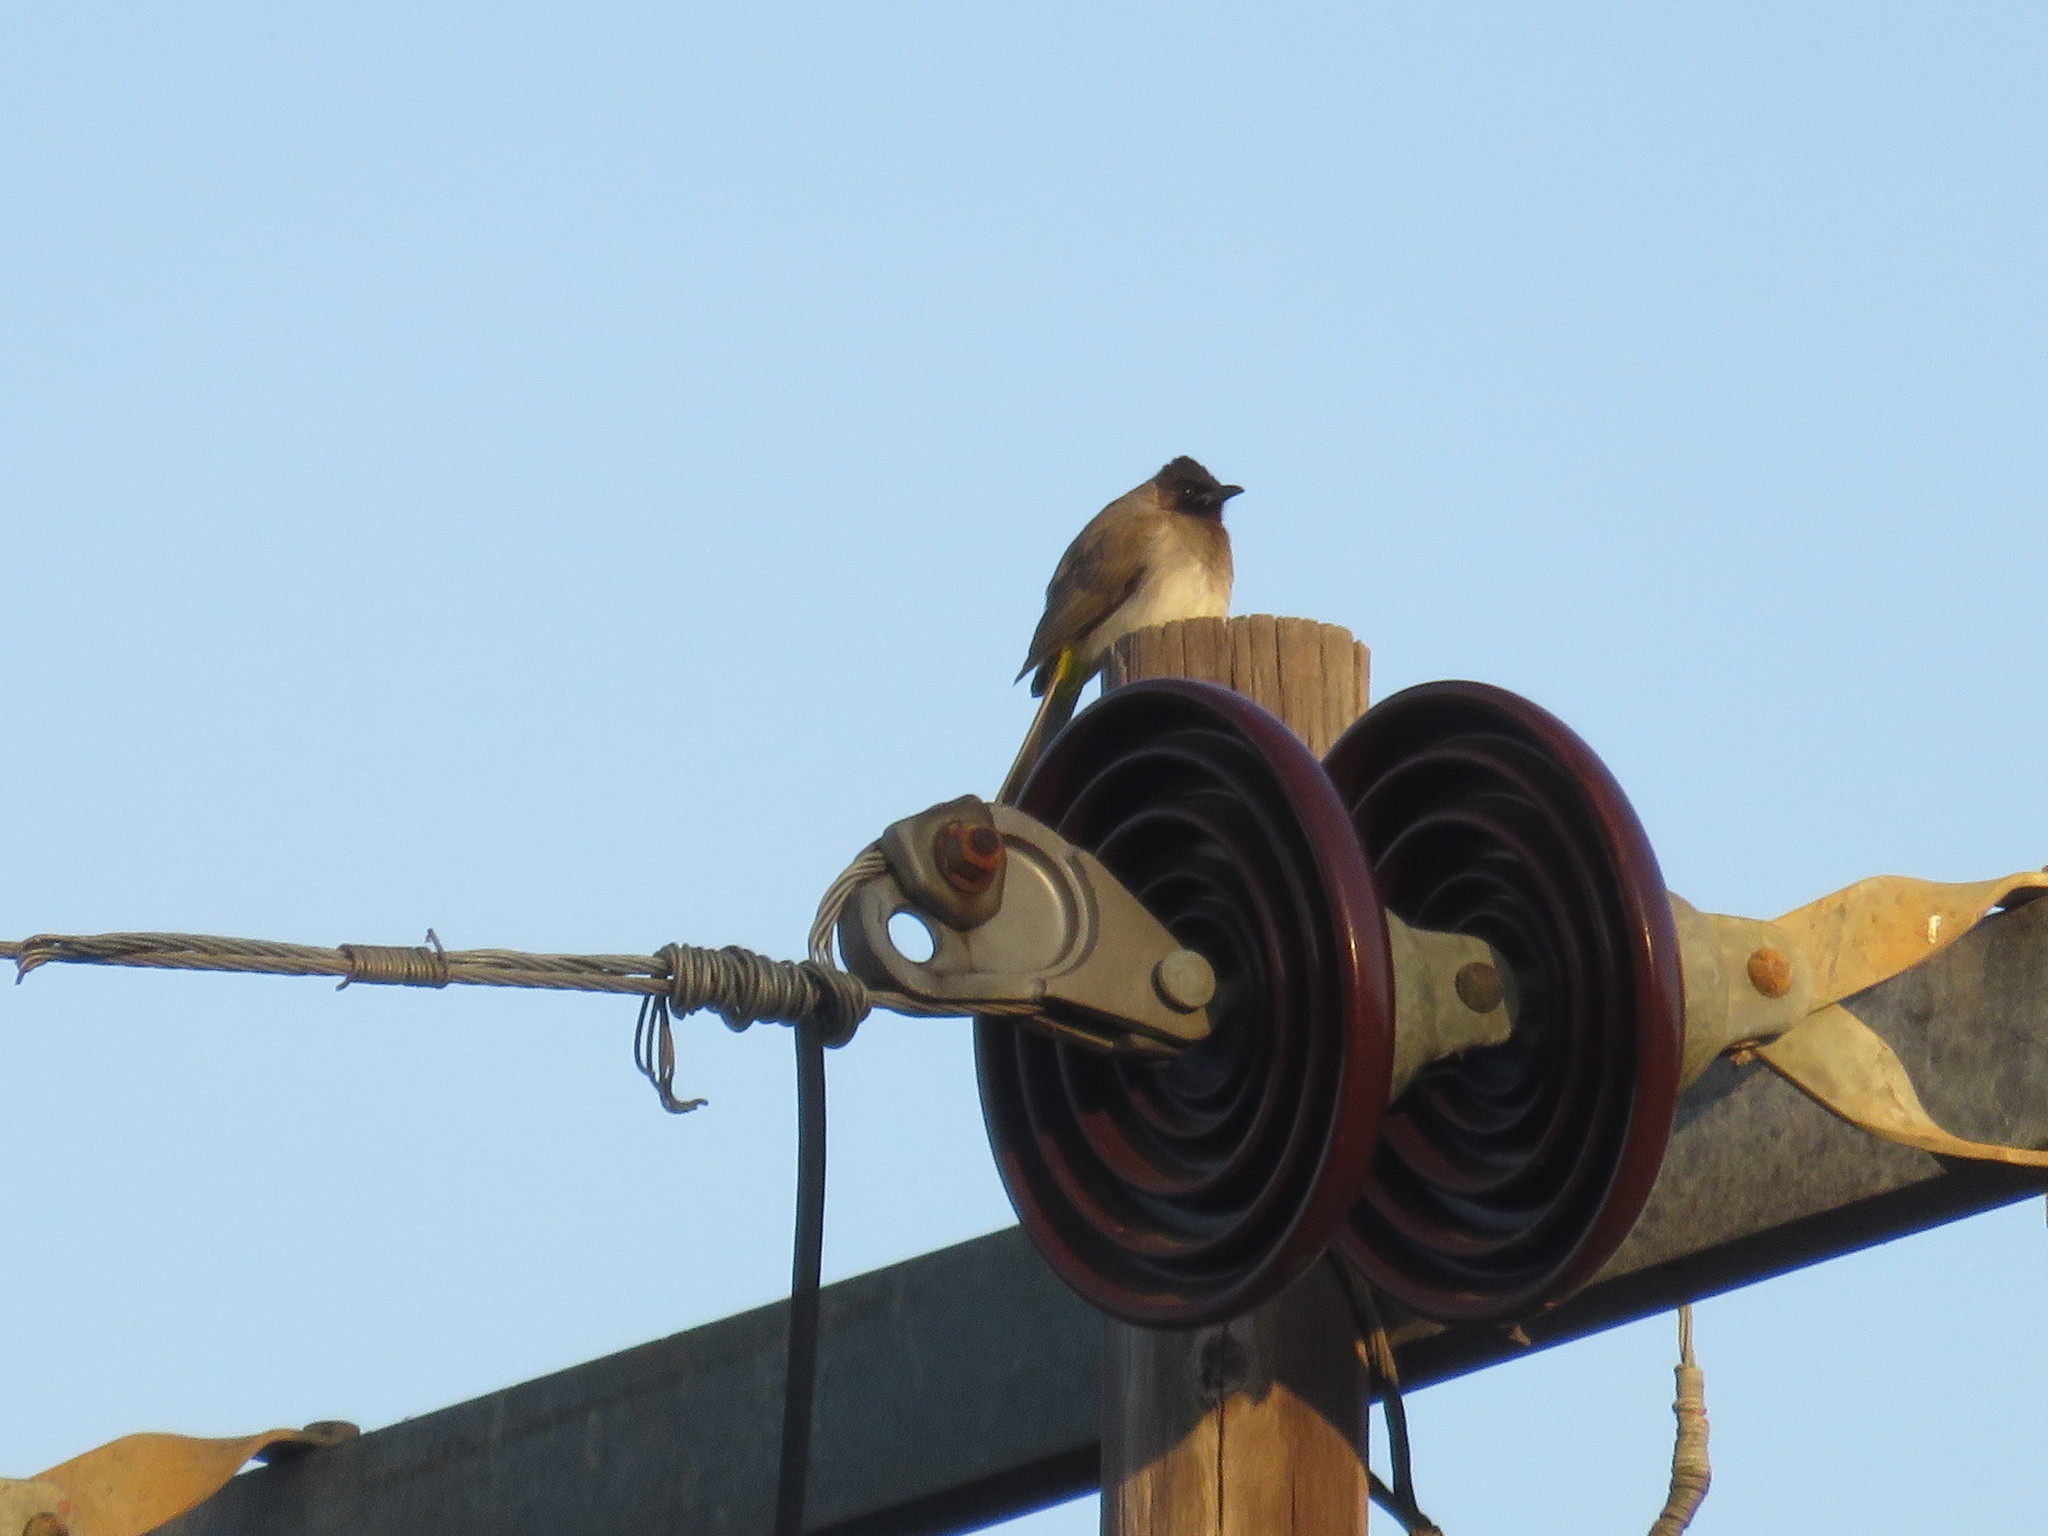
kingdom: Animalia
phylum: Chordata
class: Aves
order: Passeriformes
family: Pycnonotidae
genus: Pycnonotus
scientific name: Pycnonotus barbatus
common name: Common bulbul
